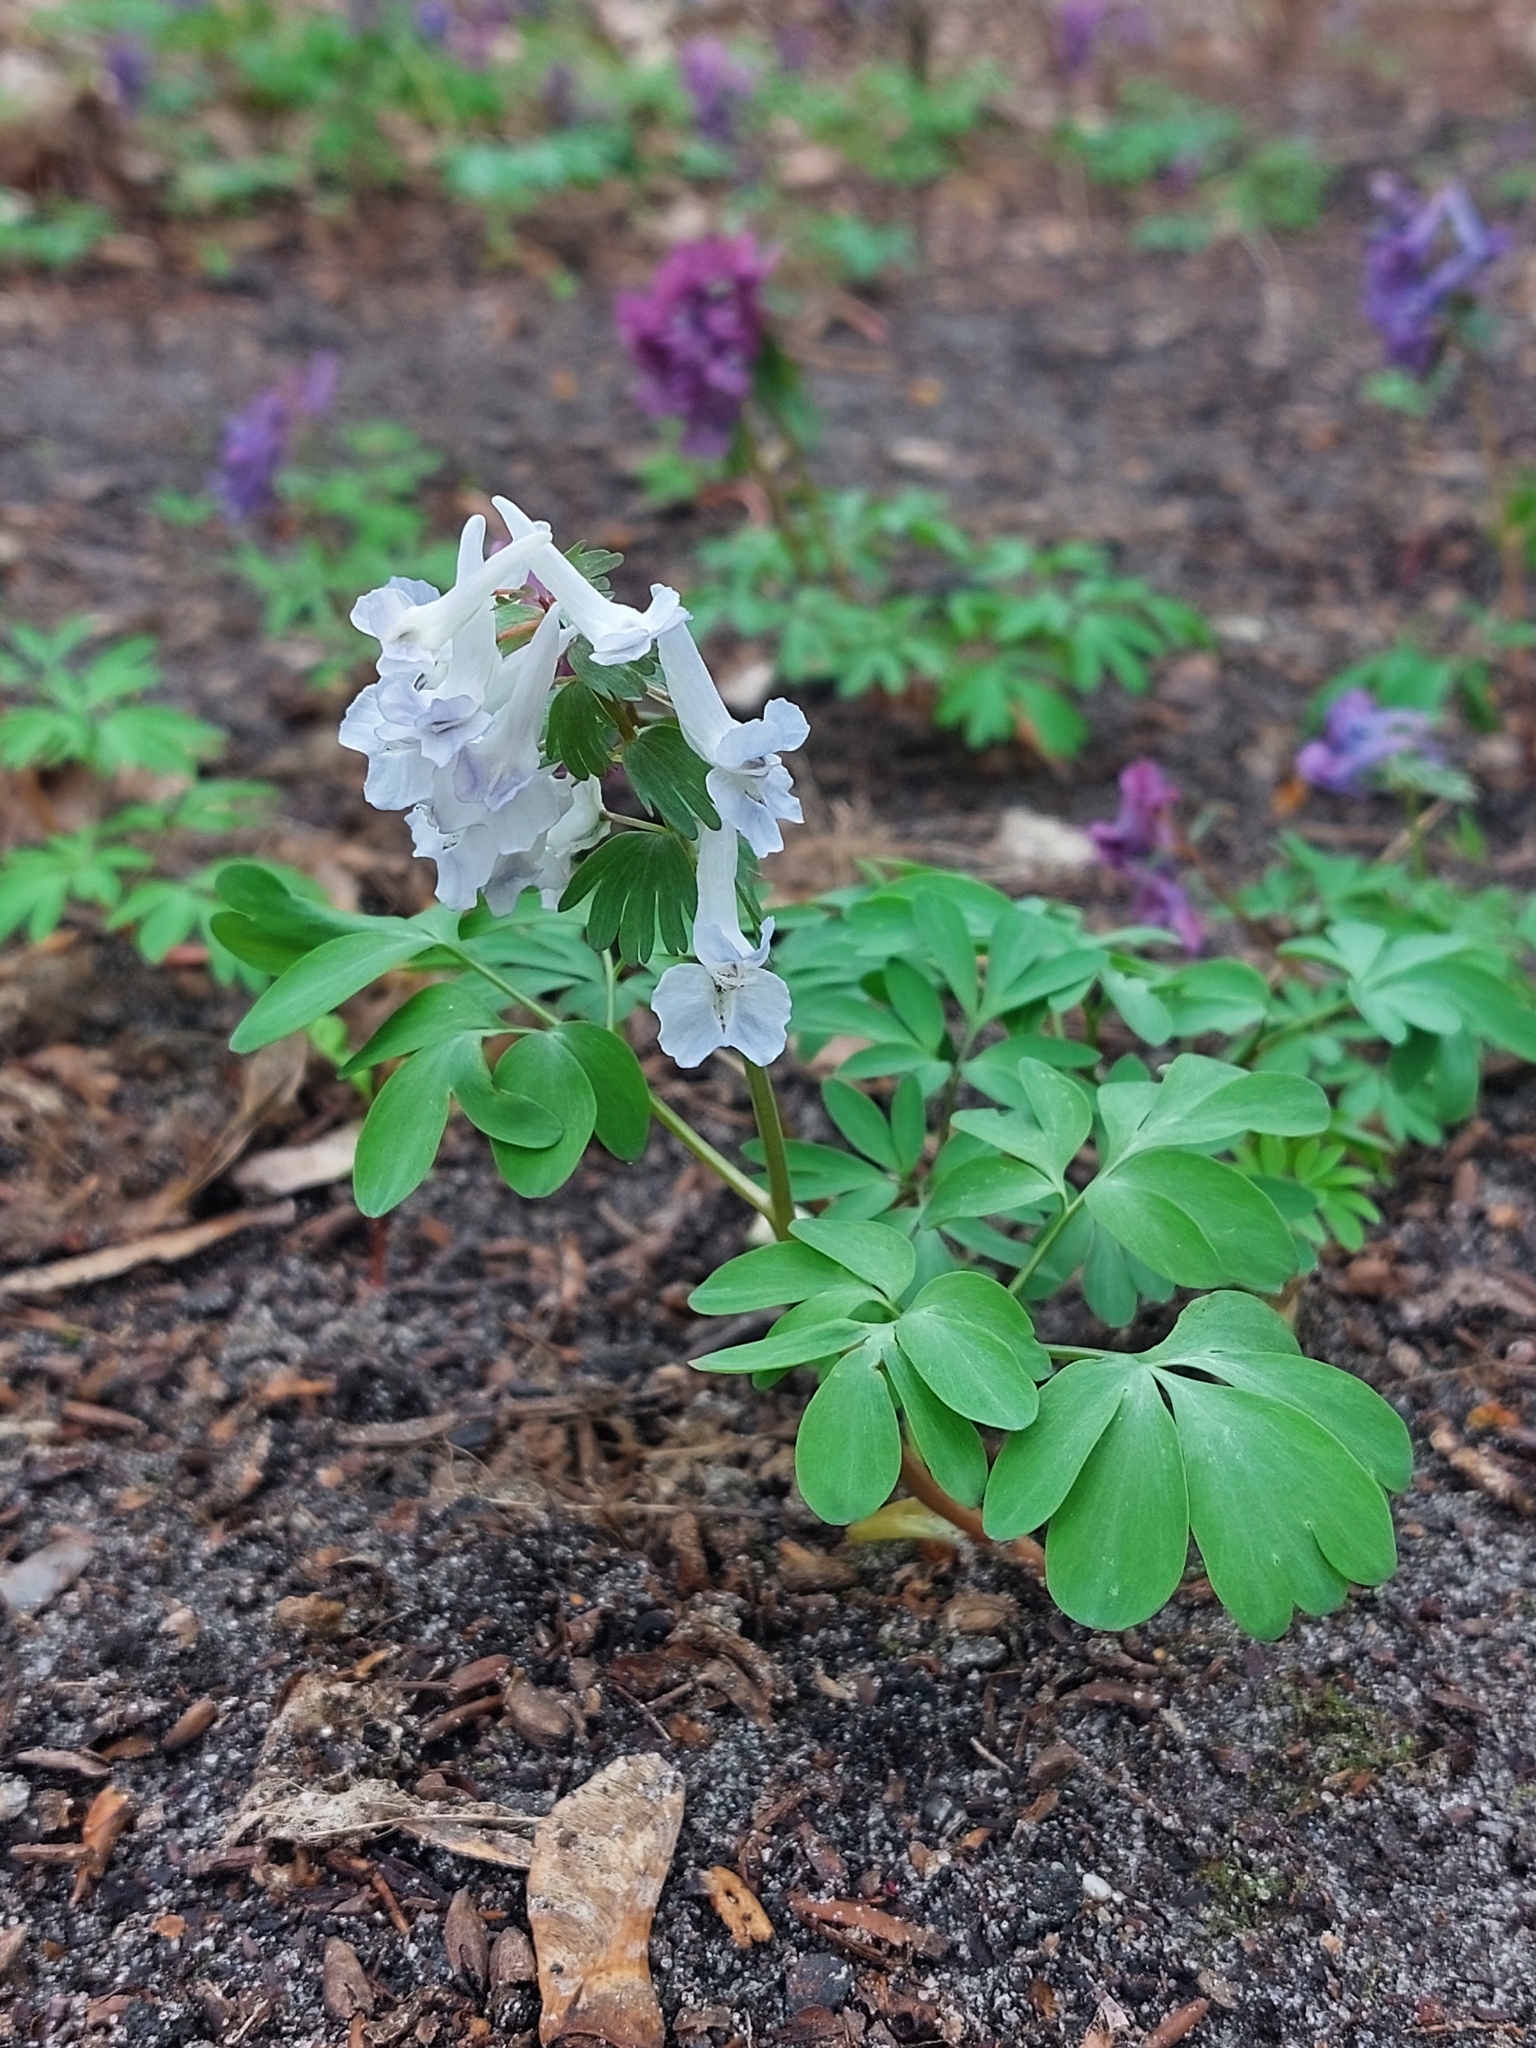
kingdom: Plantae
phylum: Tracheophyta
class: Magnoliopsida
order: Ranunculales
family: Papaveraceae
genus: Corydalis
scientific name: Corydalis solida
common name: Bird-in-a-bush
